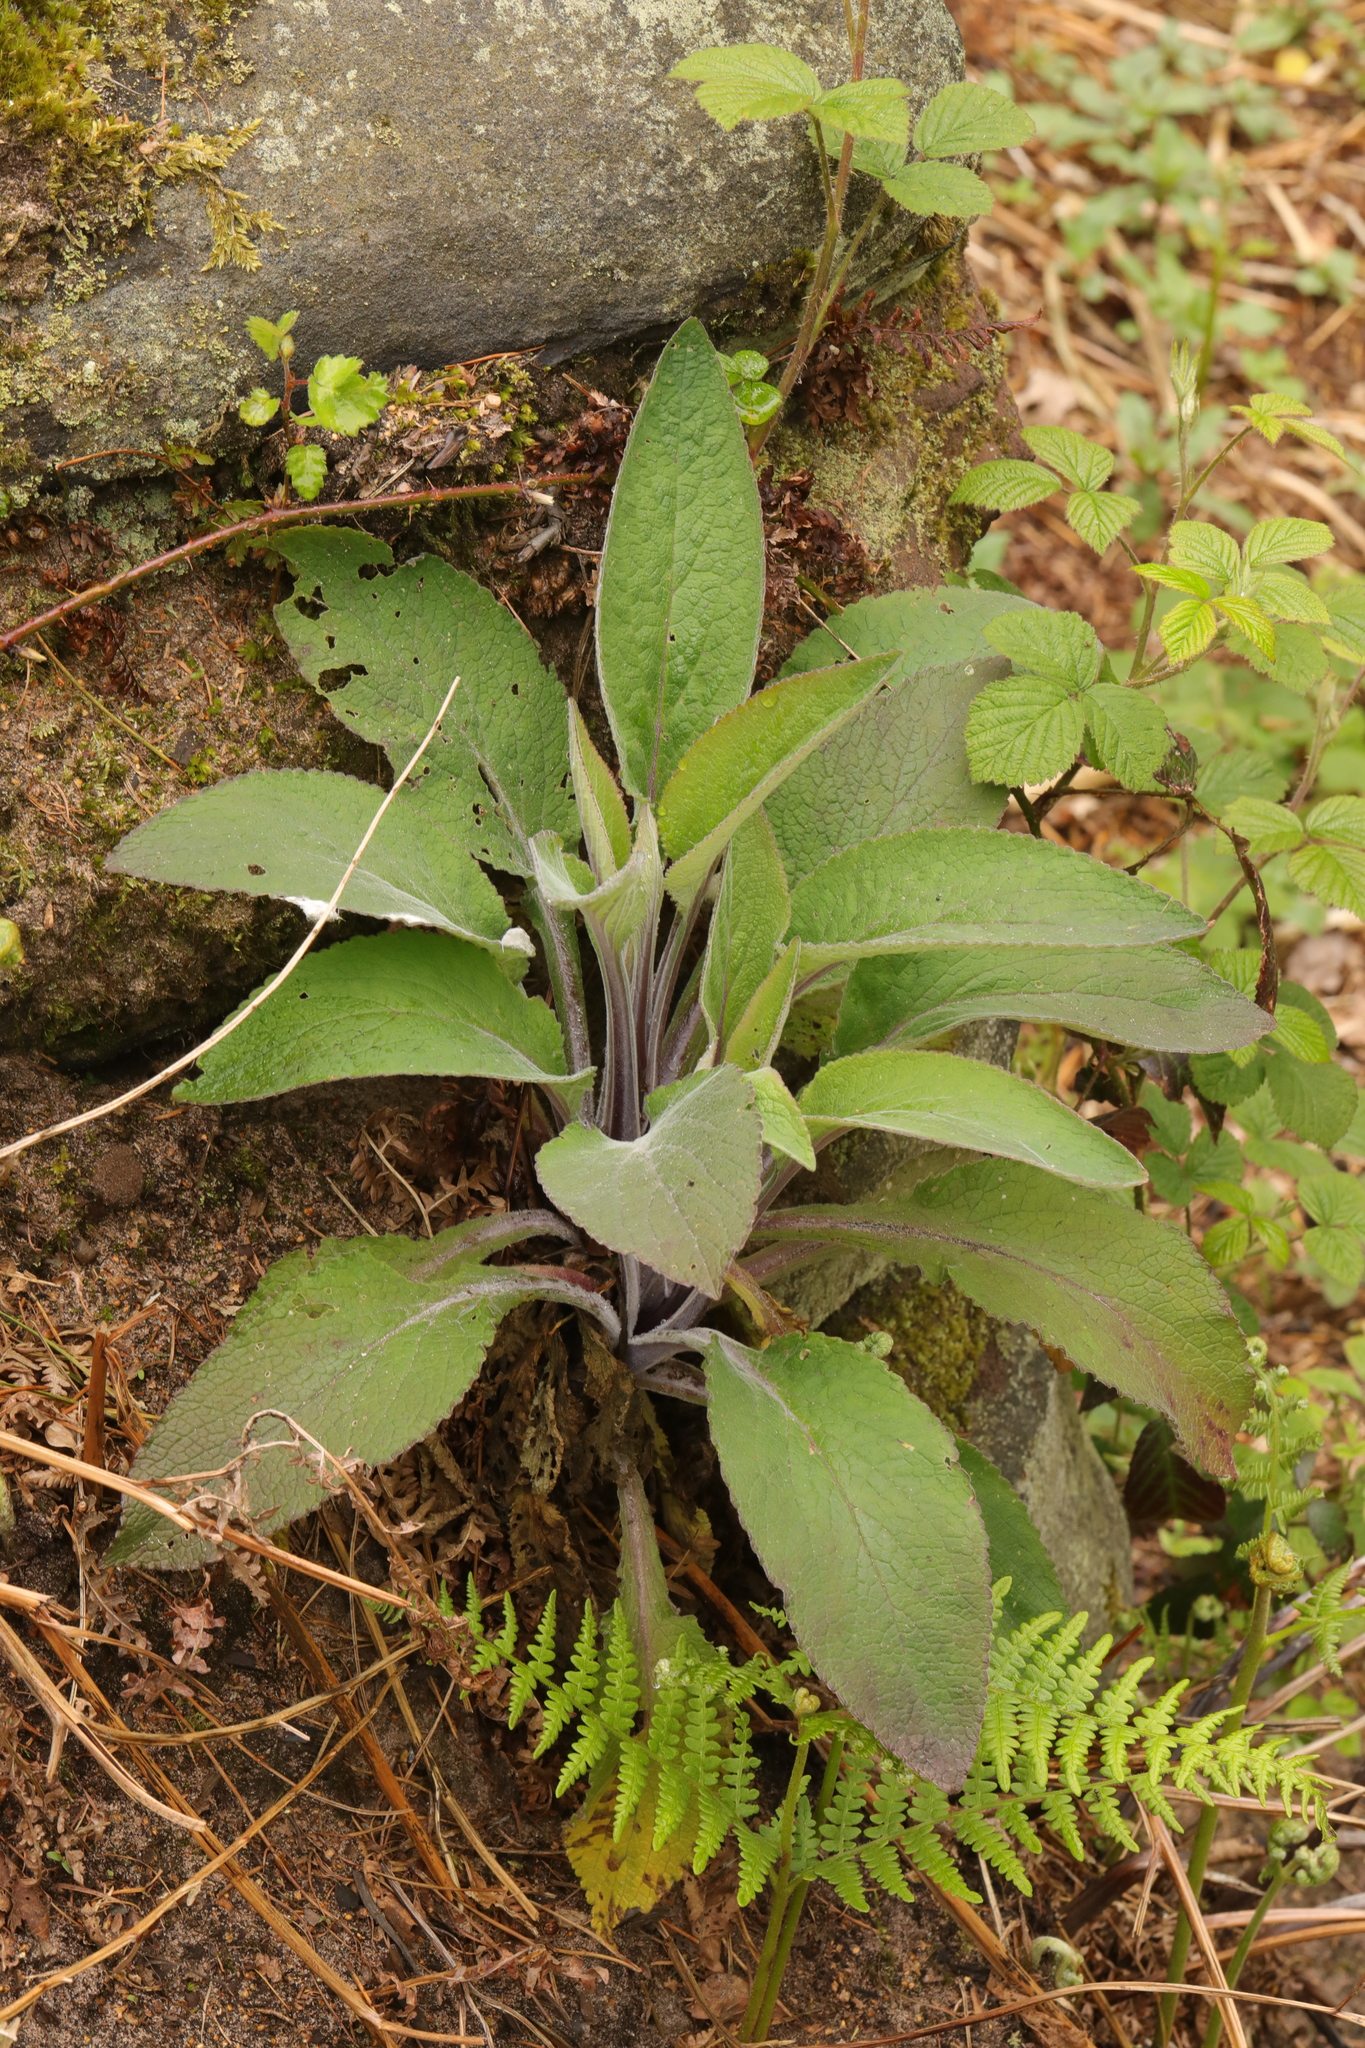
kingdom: Plantae
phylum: Tracheophyta
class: Magnoliopsida
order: Lamiales
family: Plantaginaceae
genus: Digitalis
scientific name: Digitalis purpurea
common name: Foxglove
